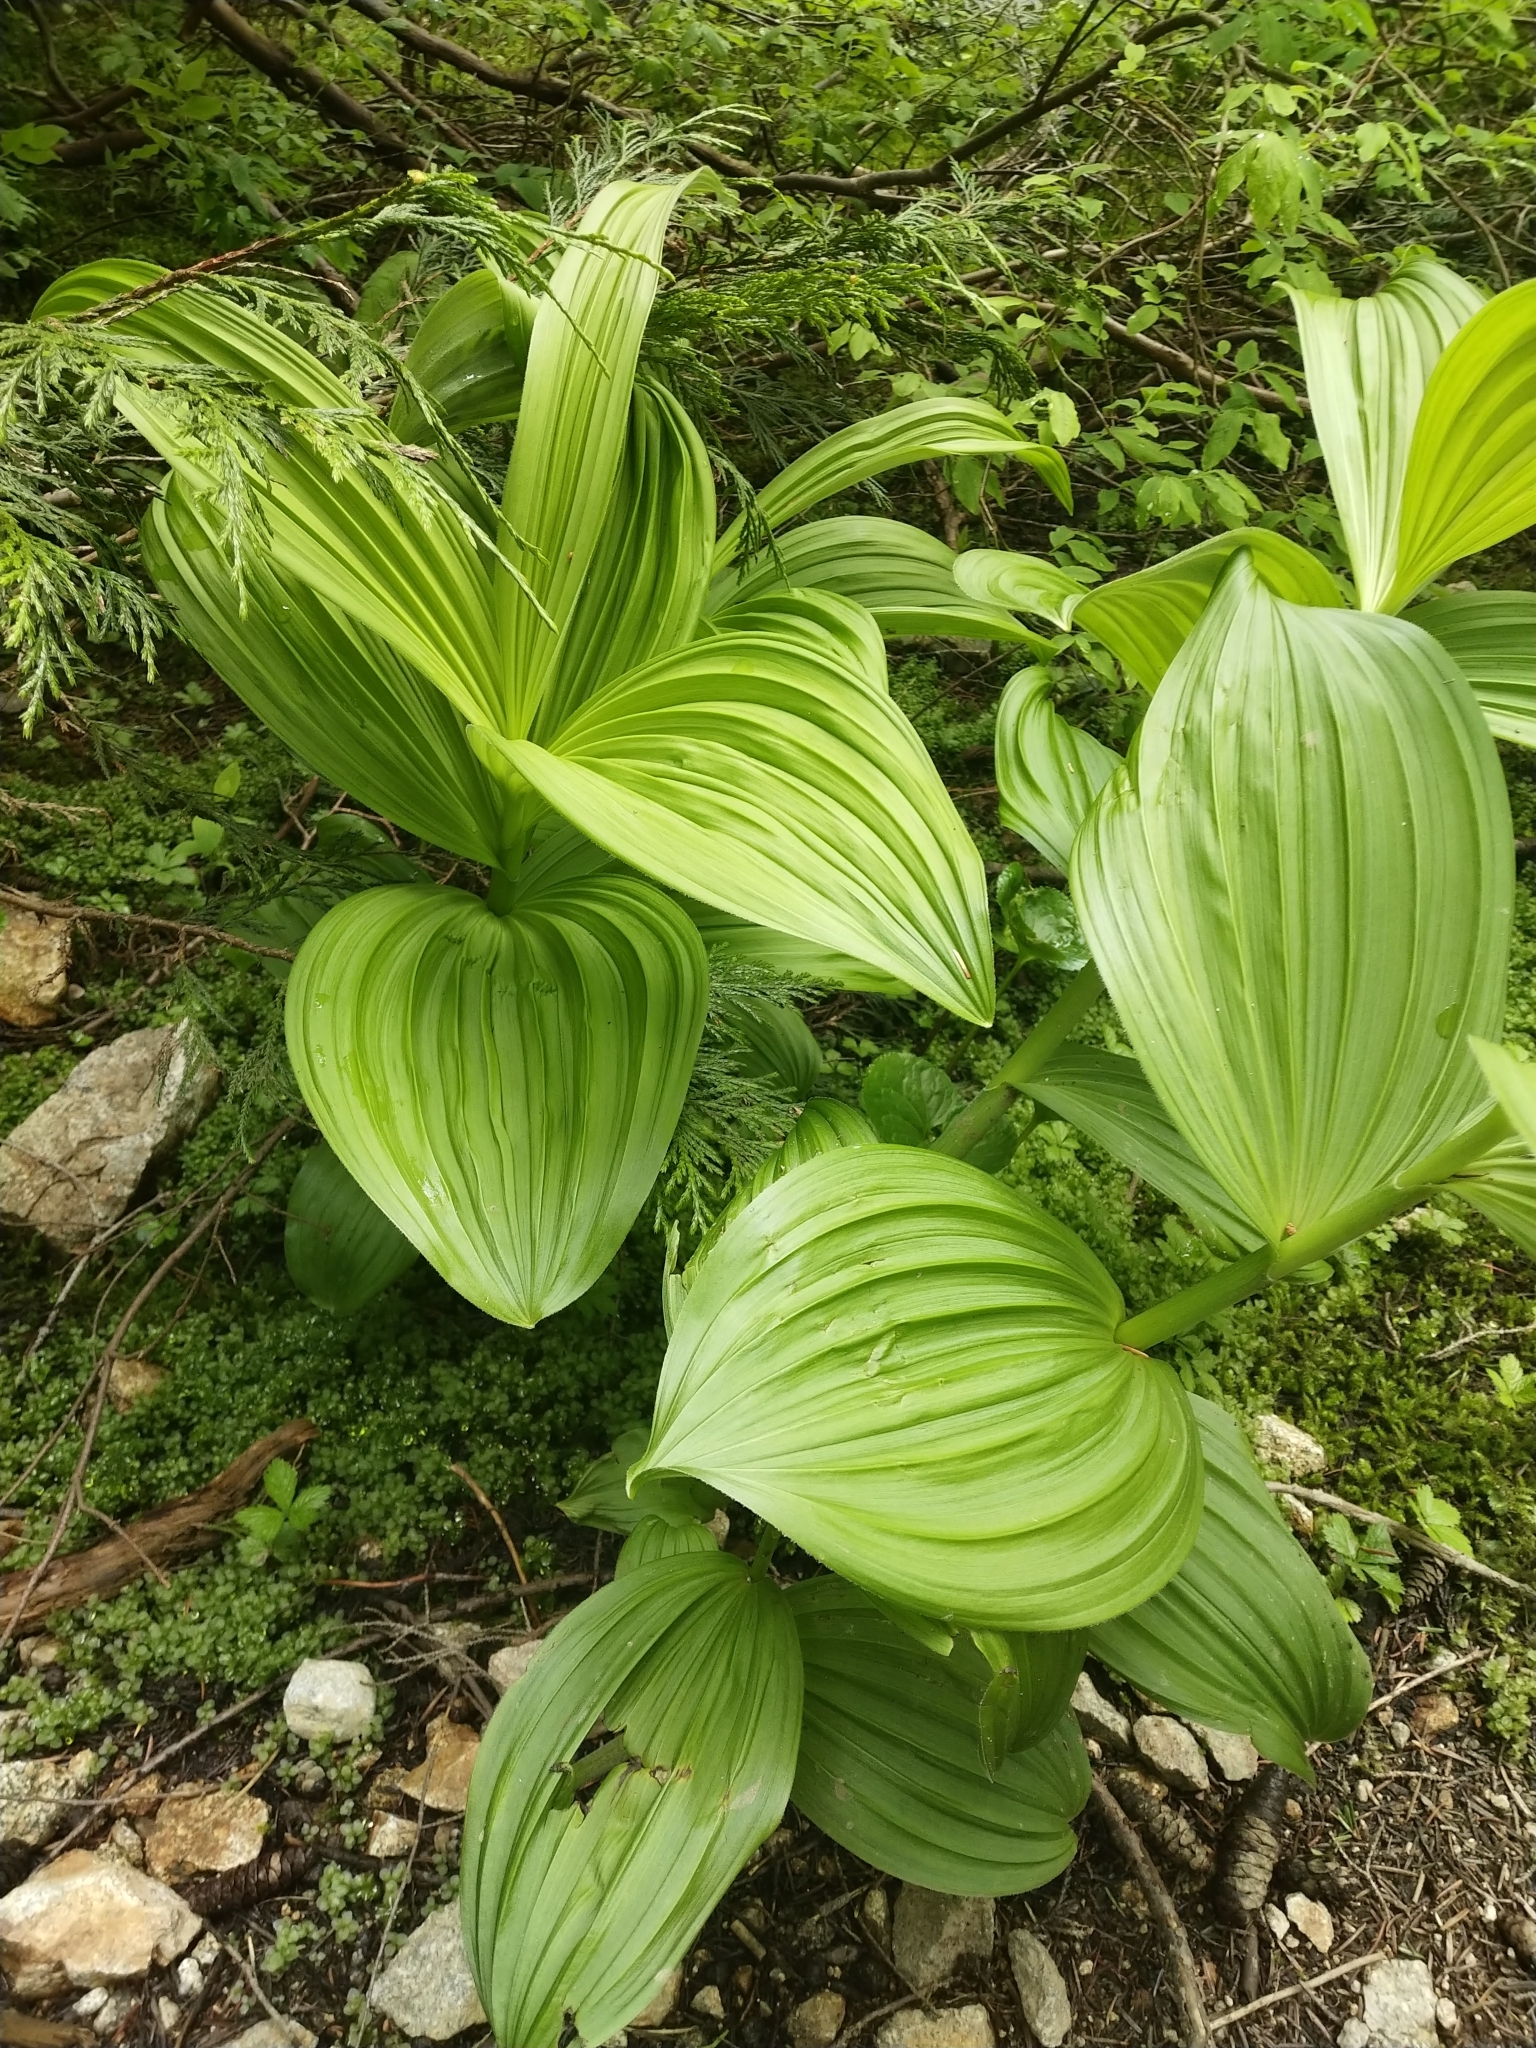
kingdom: Plantae
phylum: Tracheophyta
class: Liliopsida
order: Liliales
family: Melanthiaceae
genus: Veratrum
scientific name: Veratrum viride
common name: American false hellebore
